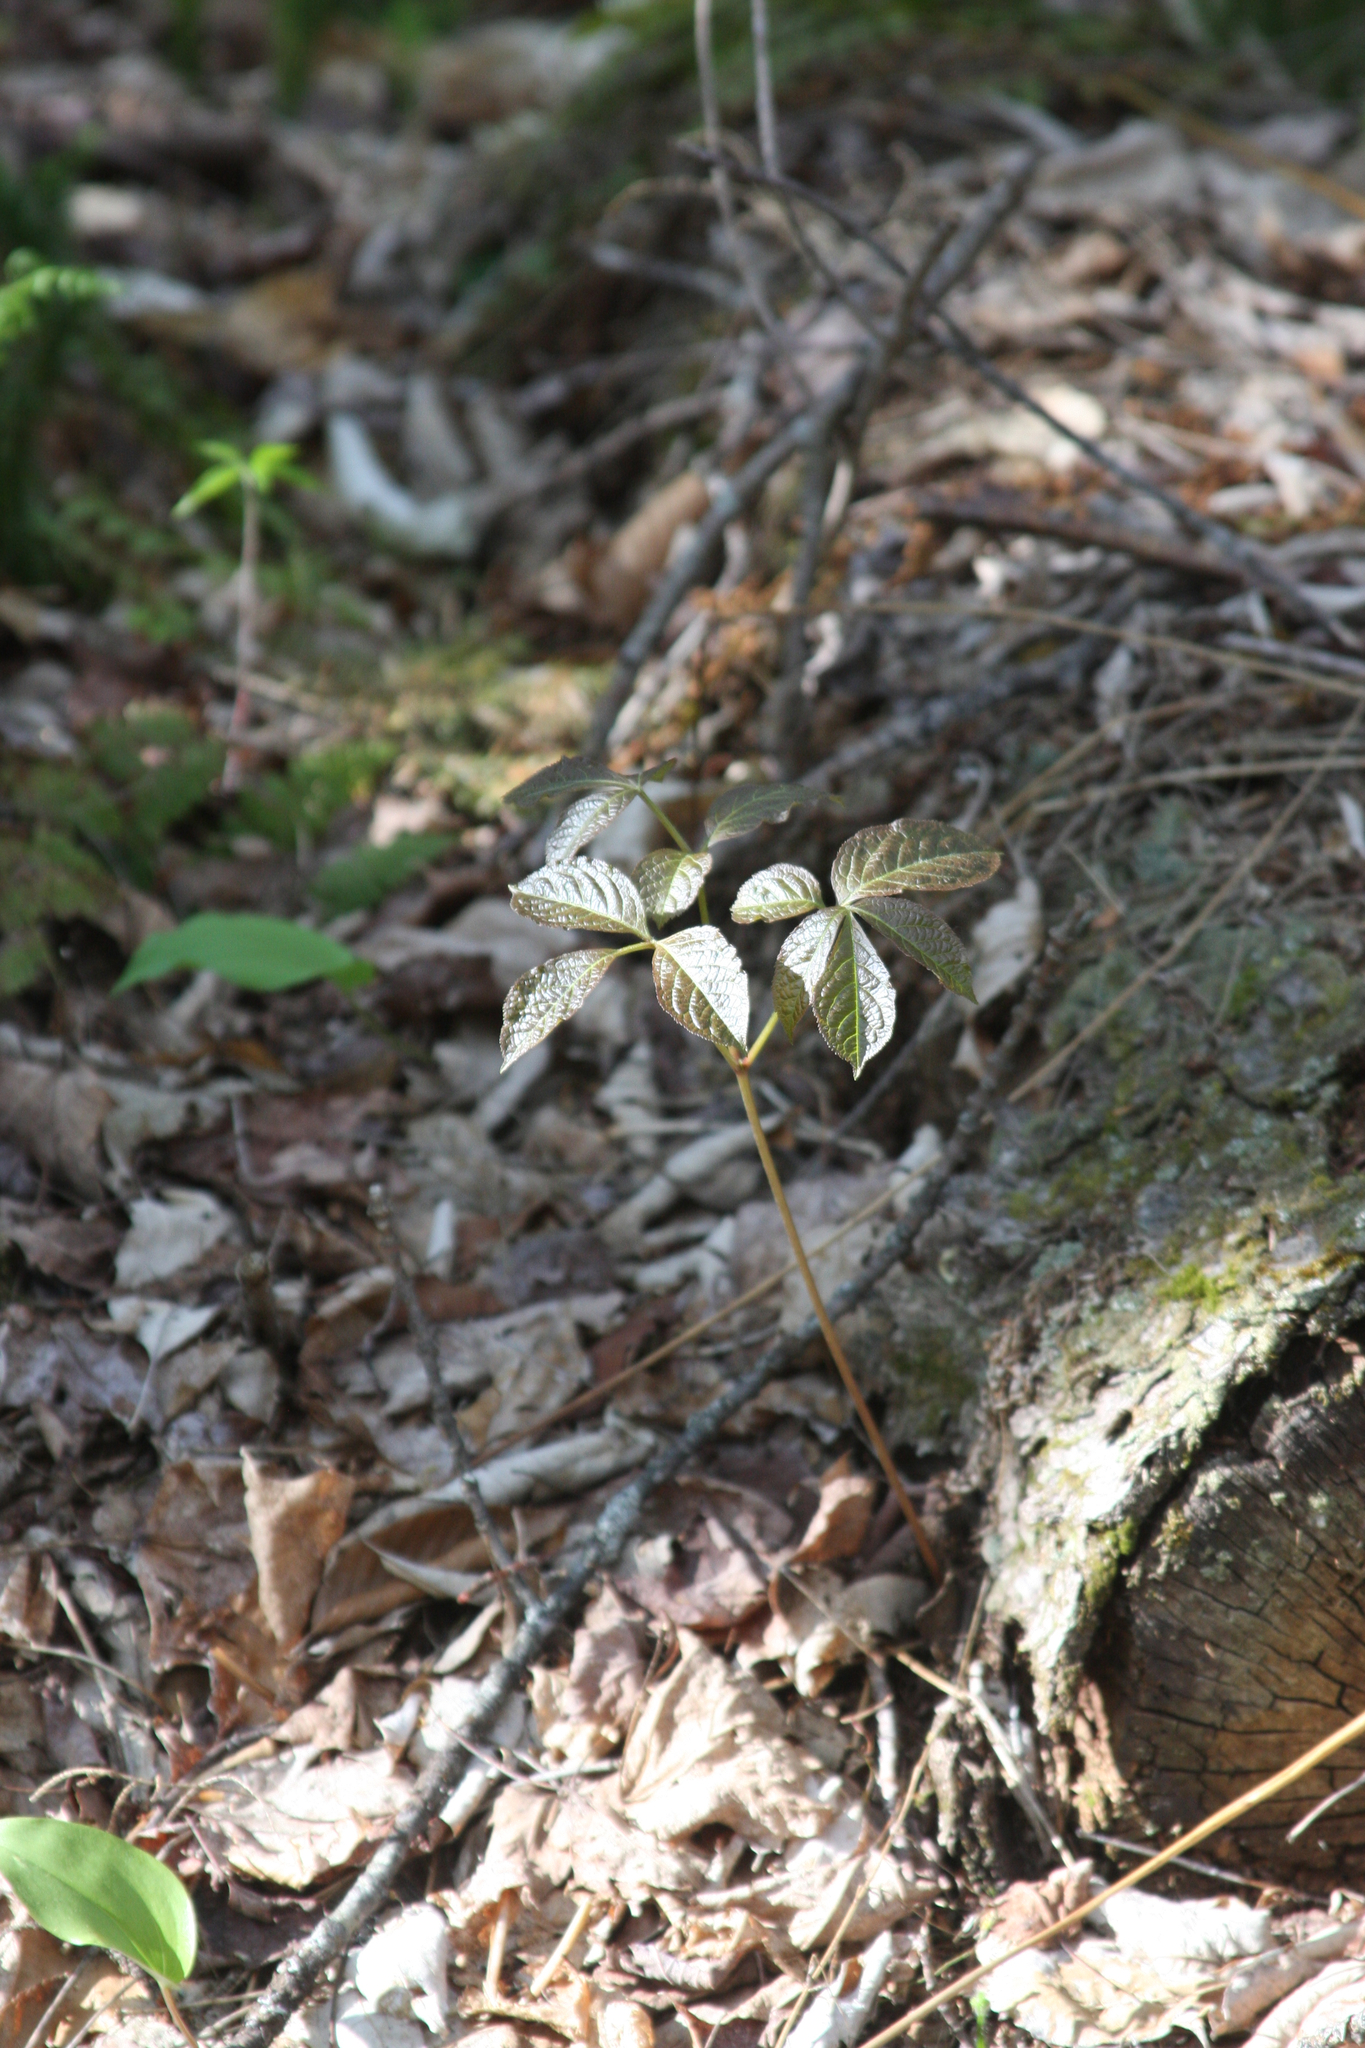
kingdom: Plantae
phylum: Tracheophyta
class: Magnoliopsida
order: Apiales
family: Araliaceae
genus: Aralia
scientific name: Aralia nudicaulis
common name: Wild sarsaparilla
